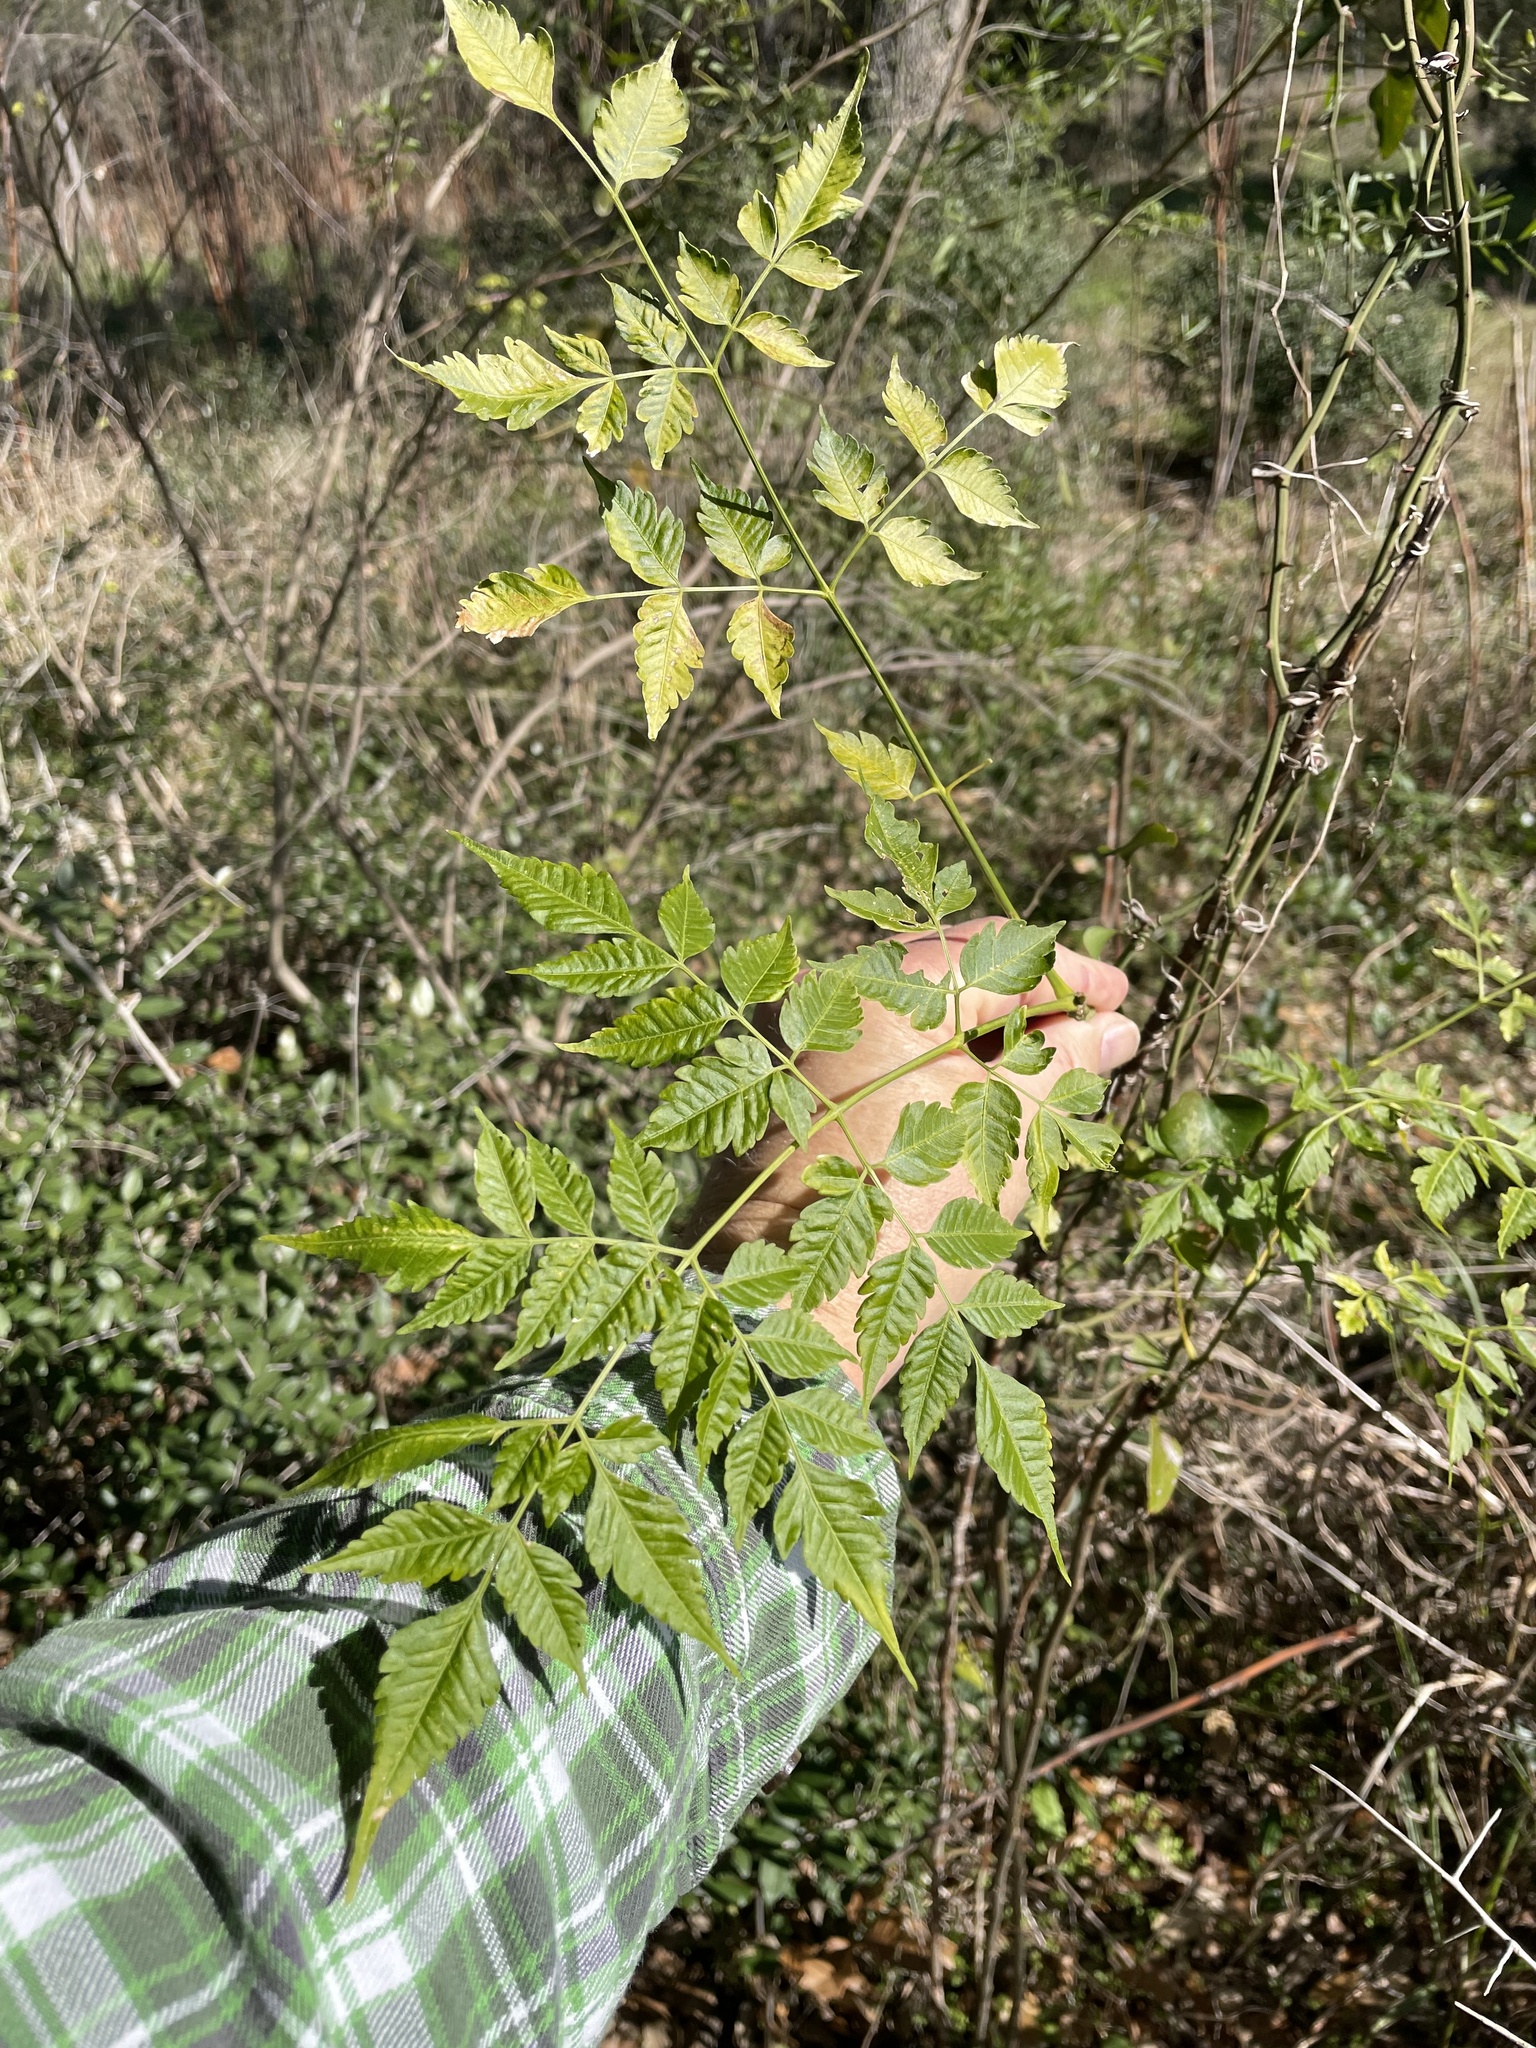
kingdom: Plantae
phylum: Tracheophyta
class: Magnoliopsida
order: Sapindales
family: Meliaceae
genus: Melia
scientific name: Melia azedarach
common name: Chinaberrytree
